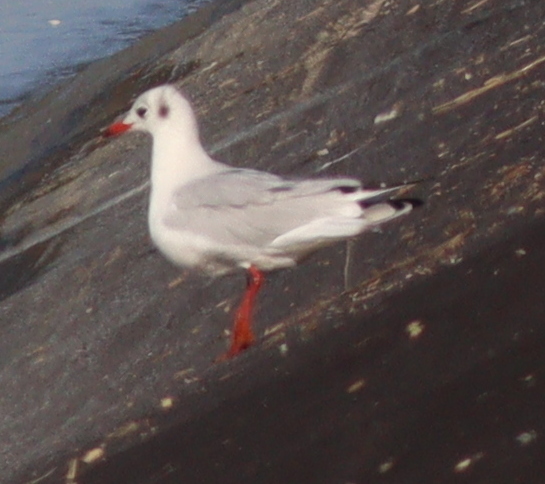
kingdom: Animalia
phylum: Chordata
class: Aves
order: Charadriiformes
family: Laridae
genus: Chroicocephalus
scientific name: Chroicocephalus ridibundus
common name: Black-headed gull
